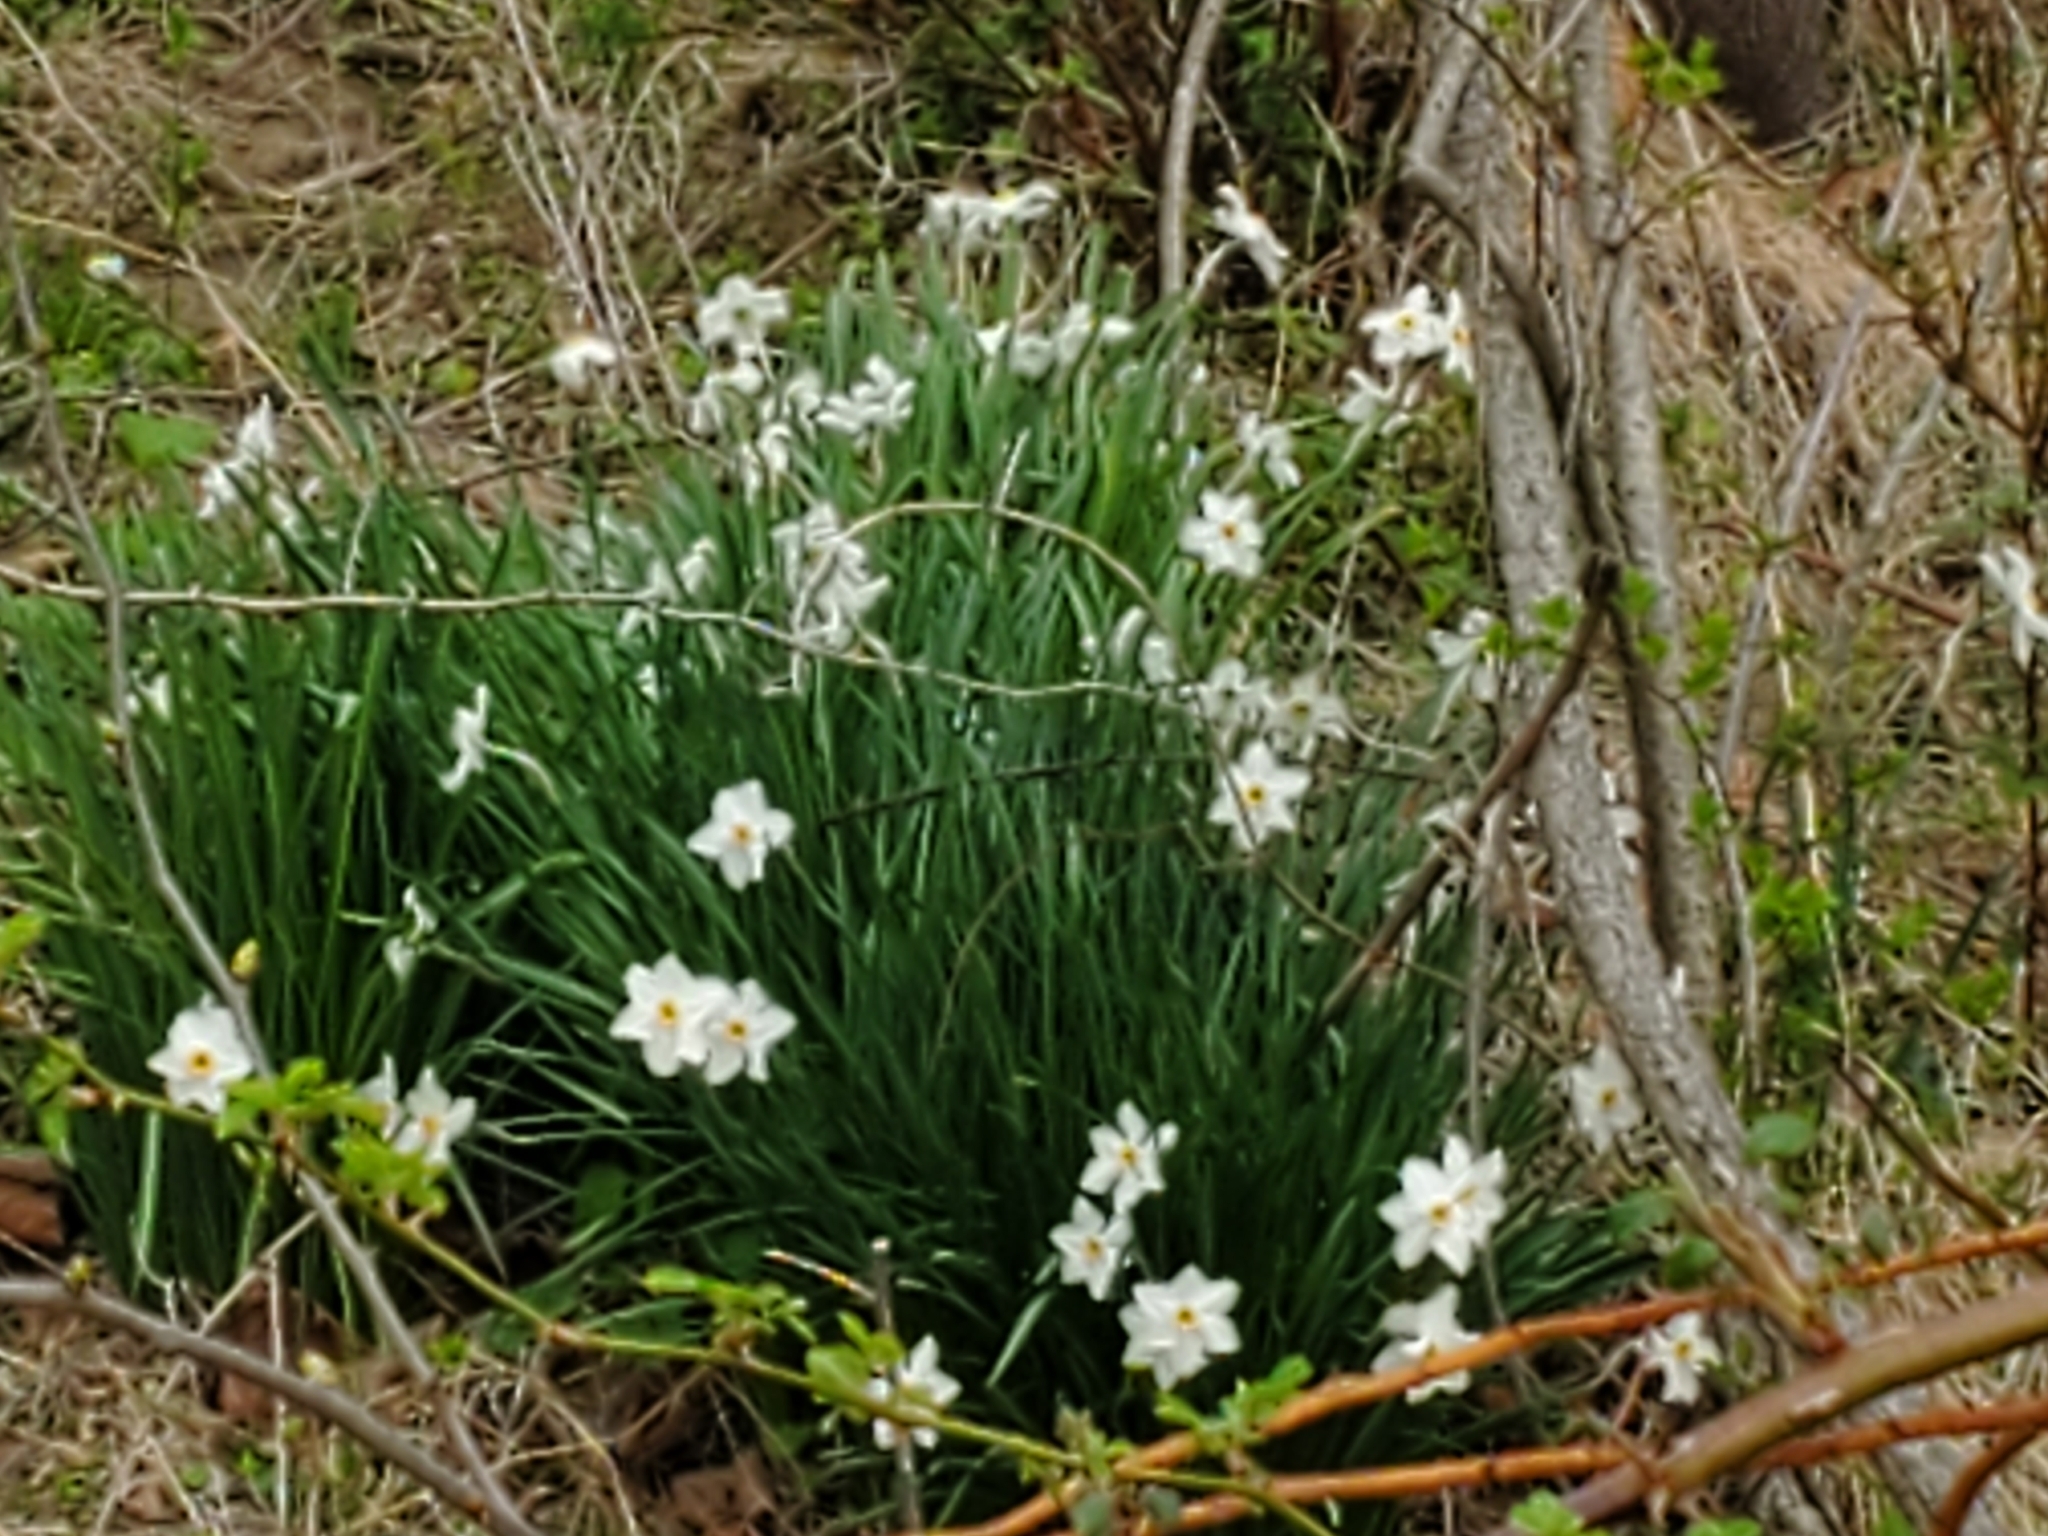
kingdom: Plantae
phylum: Tracheophyta
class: Liliopsida
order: Asparagales
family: Amaryllidaceae
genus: Narcissus
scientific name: Narcissus poeticus
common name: Pheasant's-eye daffodil
